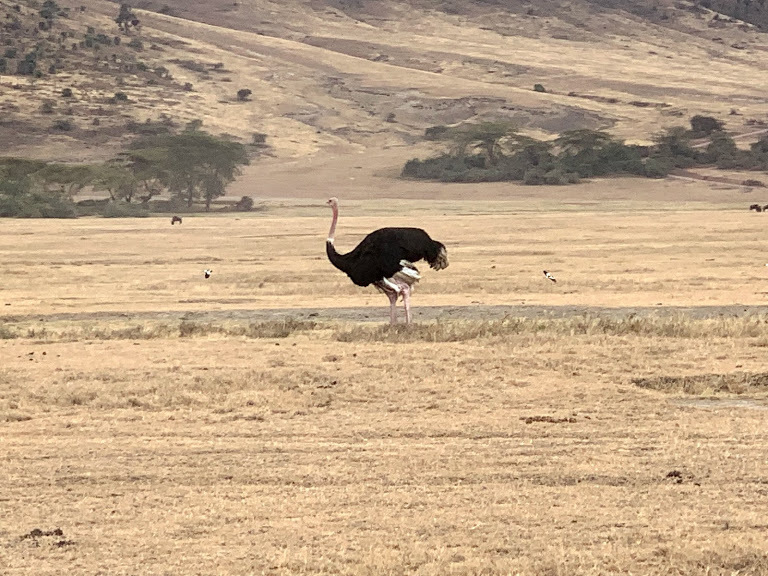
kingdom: Animalia
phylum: Chordata
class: Aves
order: Struthioniformes
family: Struthionidae
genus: Struthio
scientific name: Struthio camelus
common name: Common ostrich
